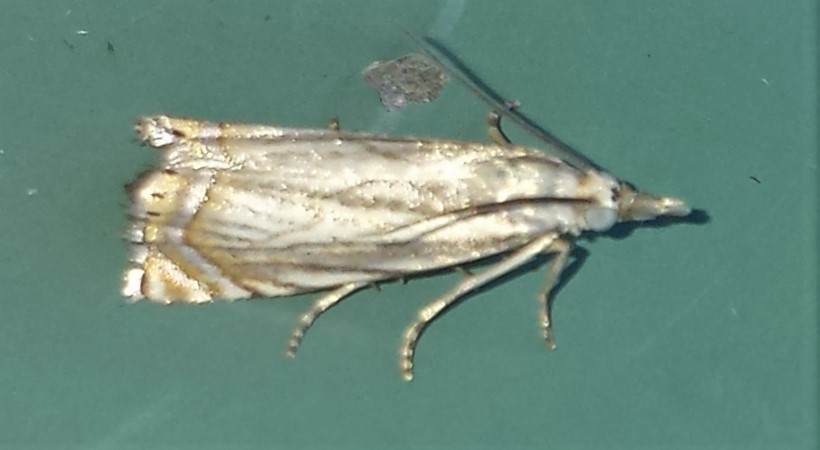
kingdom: Animalia
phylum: Arthropoda
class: Insecta
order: Lepidoptera
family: Crambidae
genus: Chrysoteuchia
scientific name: Chrysoteuchia topiarius
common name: Topiary grass-veneer
